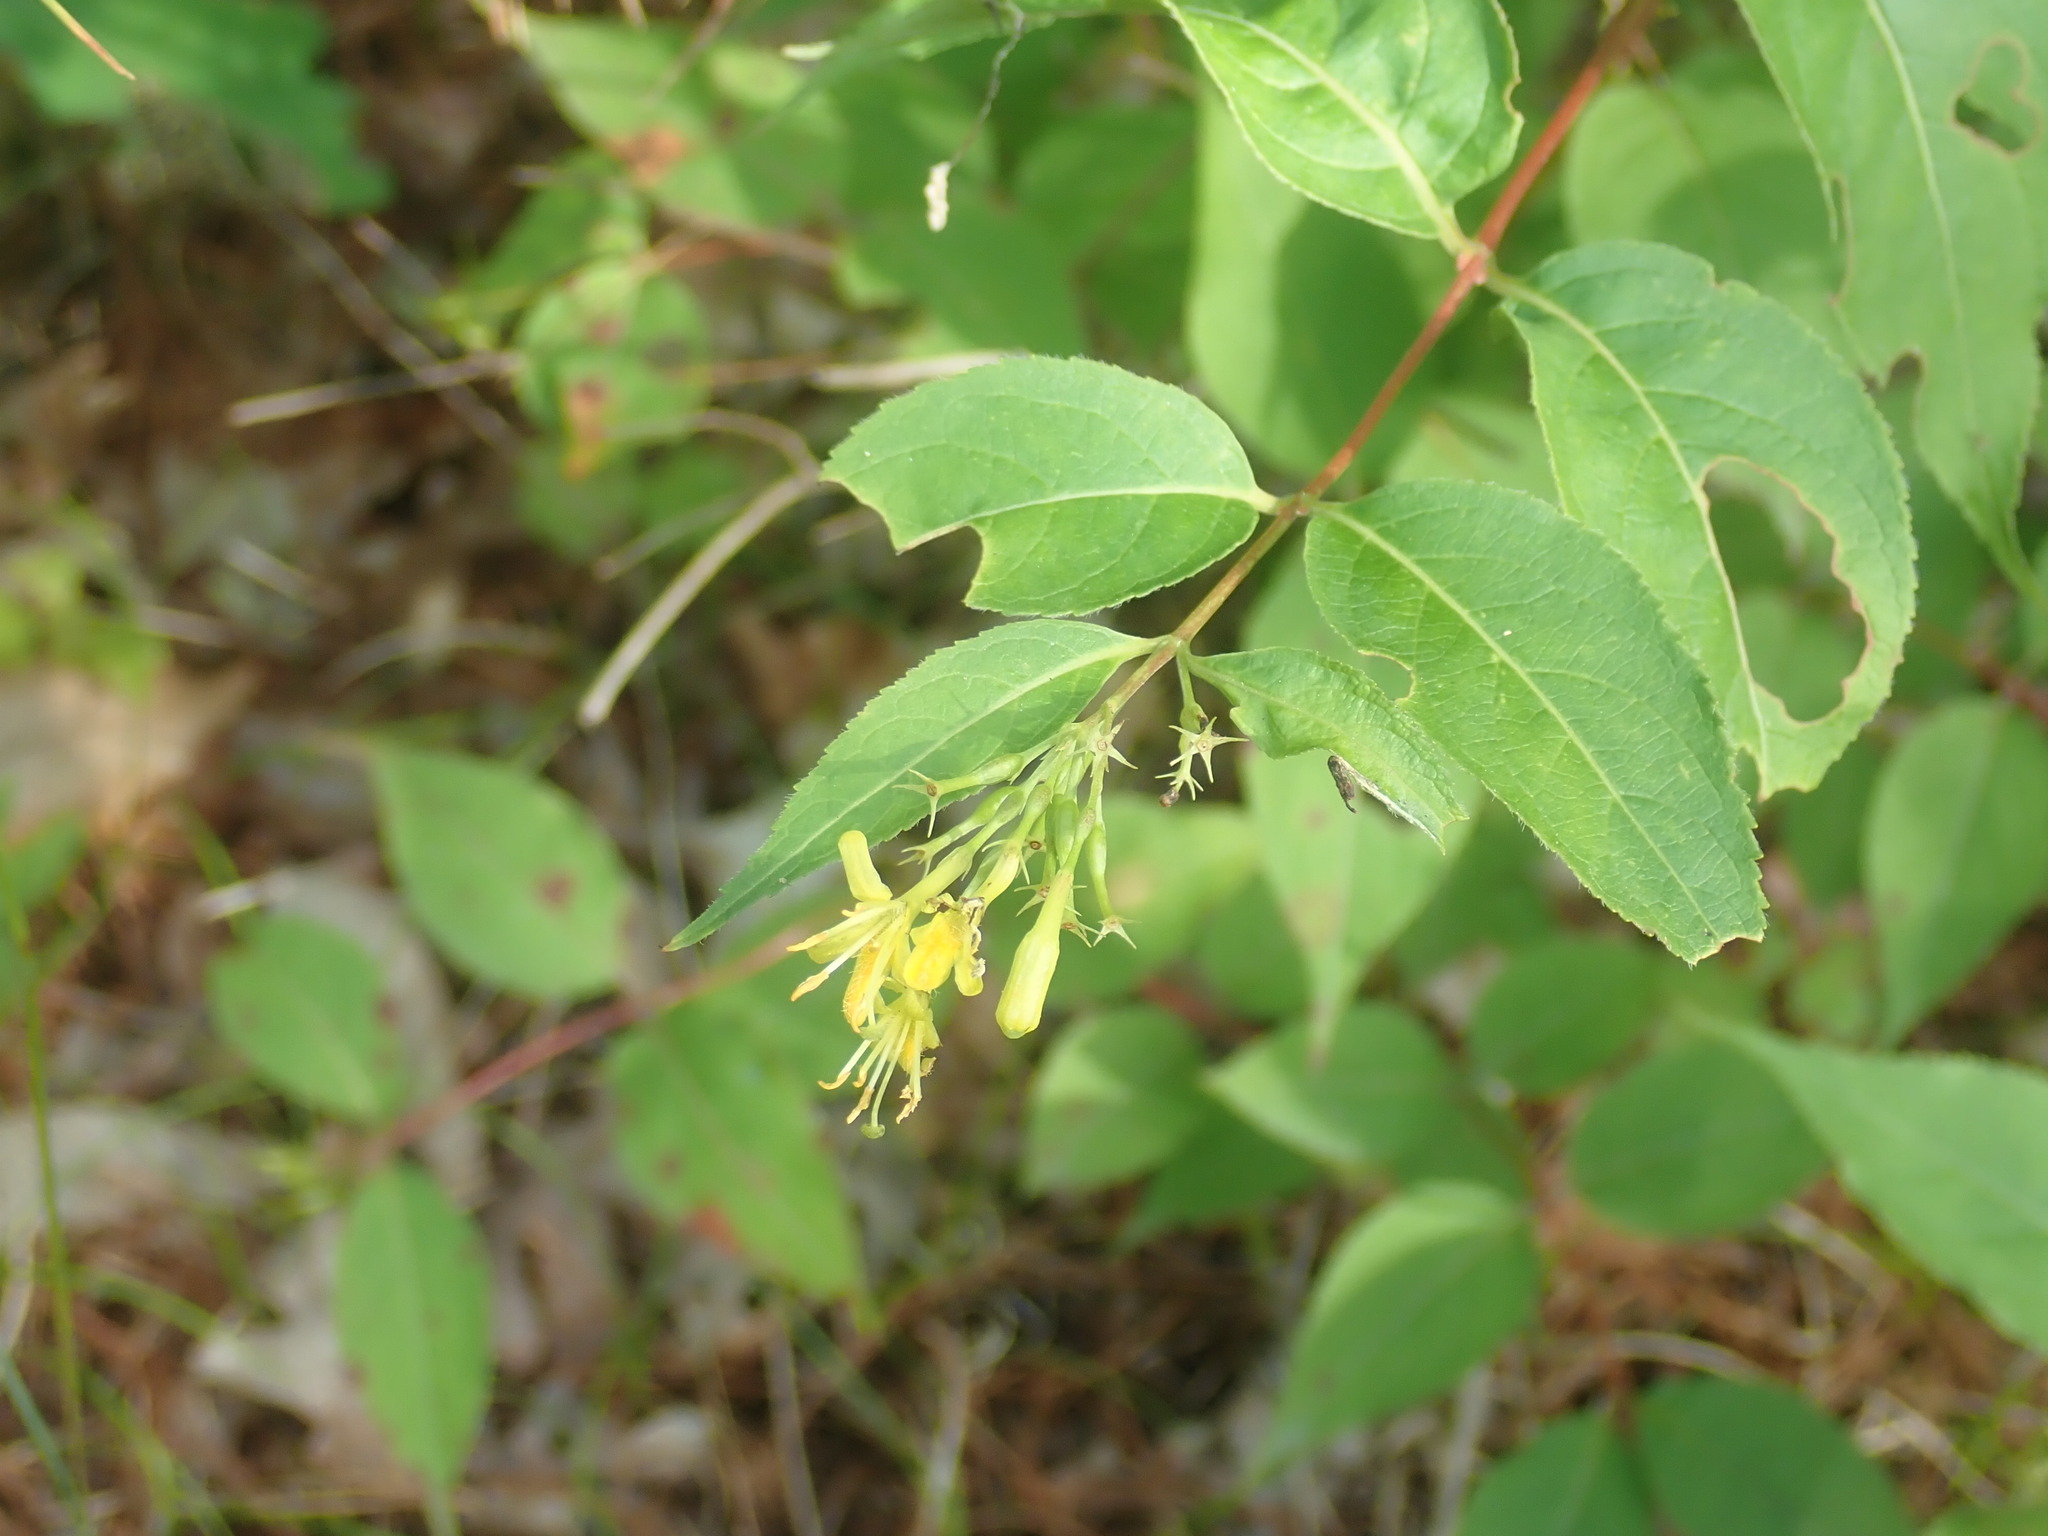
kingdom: Plantae
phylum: Tracheophyta
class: Magnoliopsida
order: Dipsacales
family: Caprifoliaceae
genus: Diervilla
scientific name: Diervilla lonicera
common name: Bush-honeysuckle
